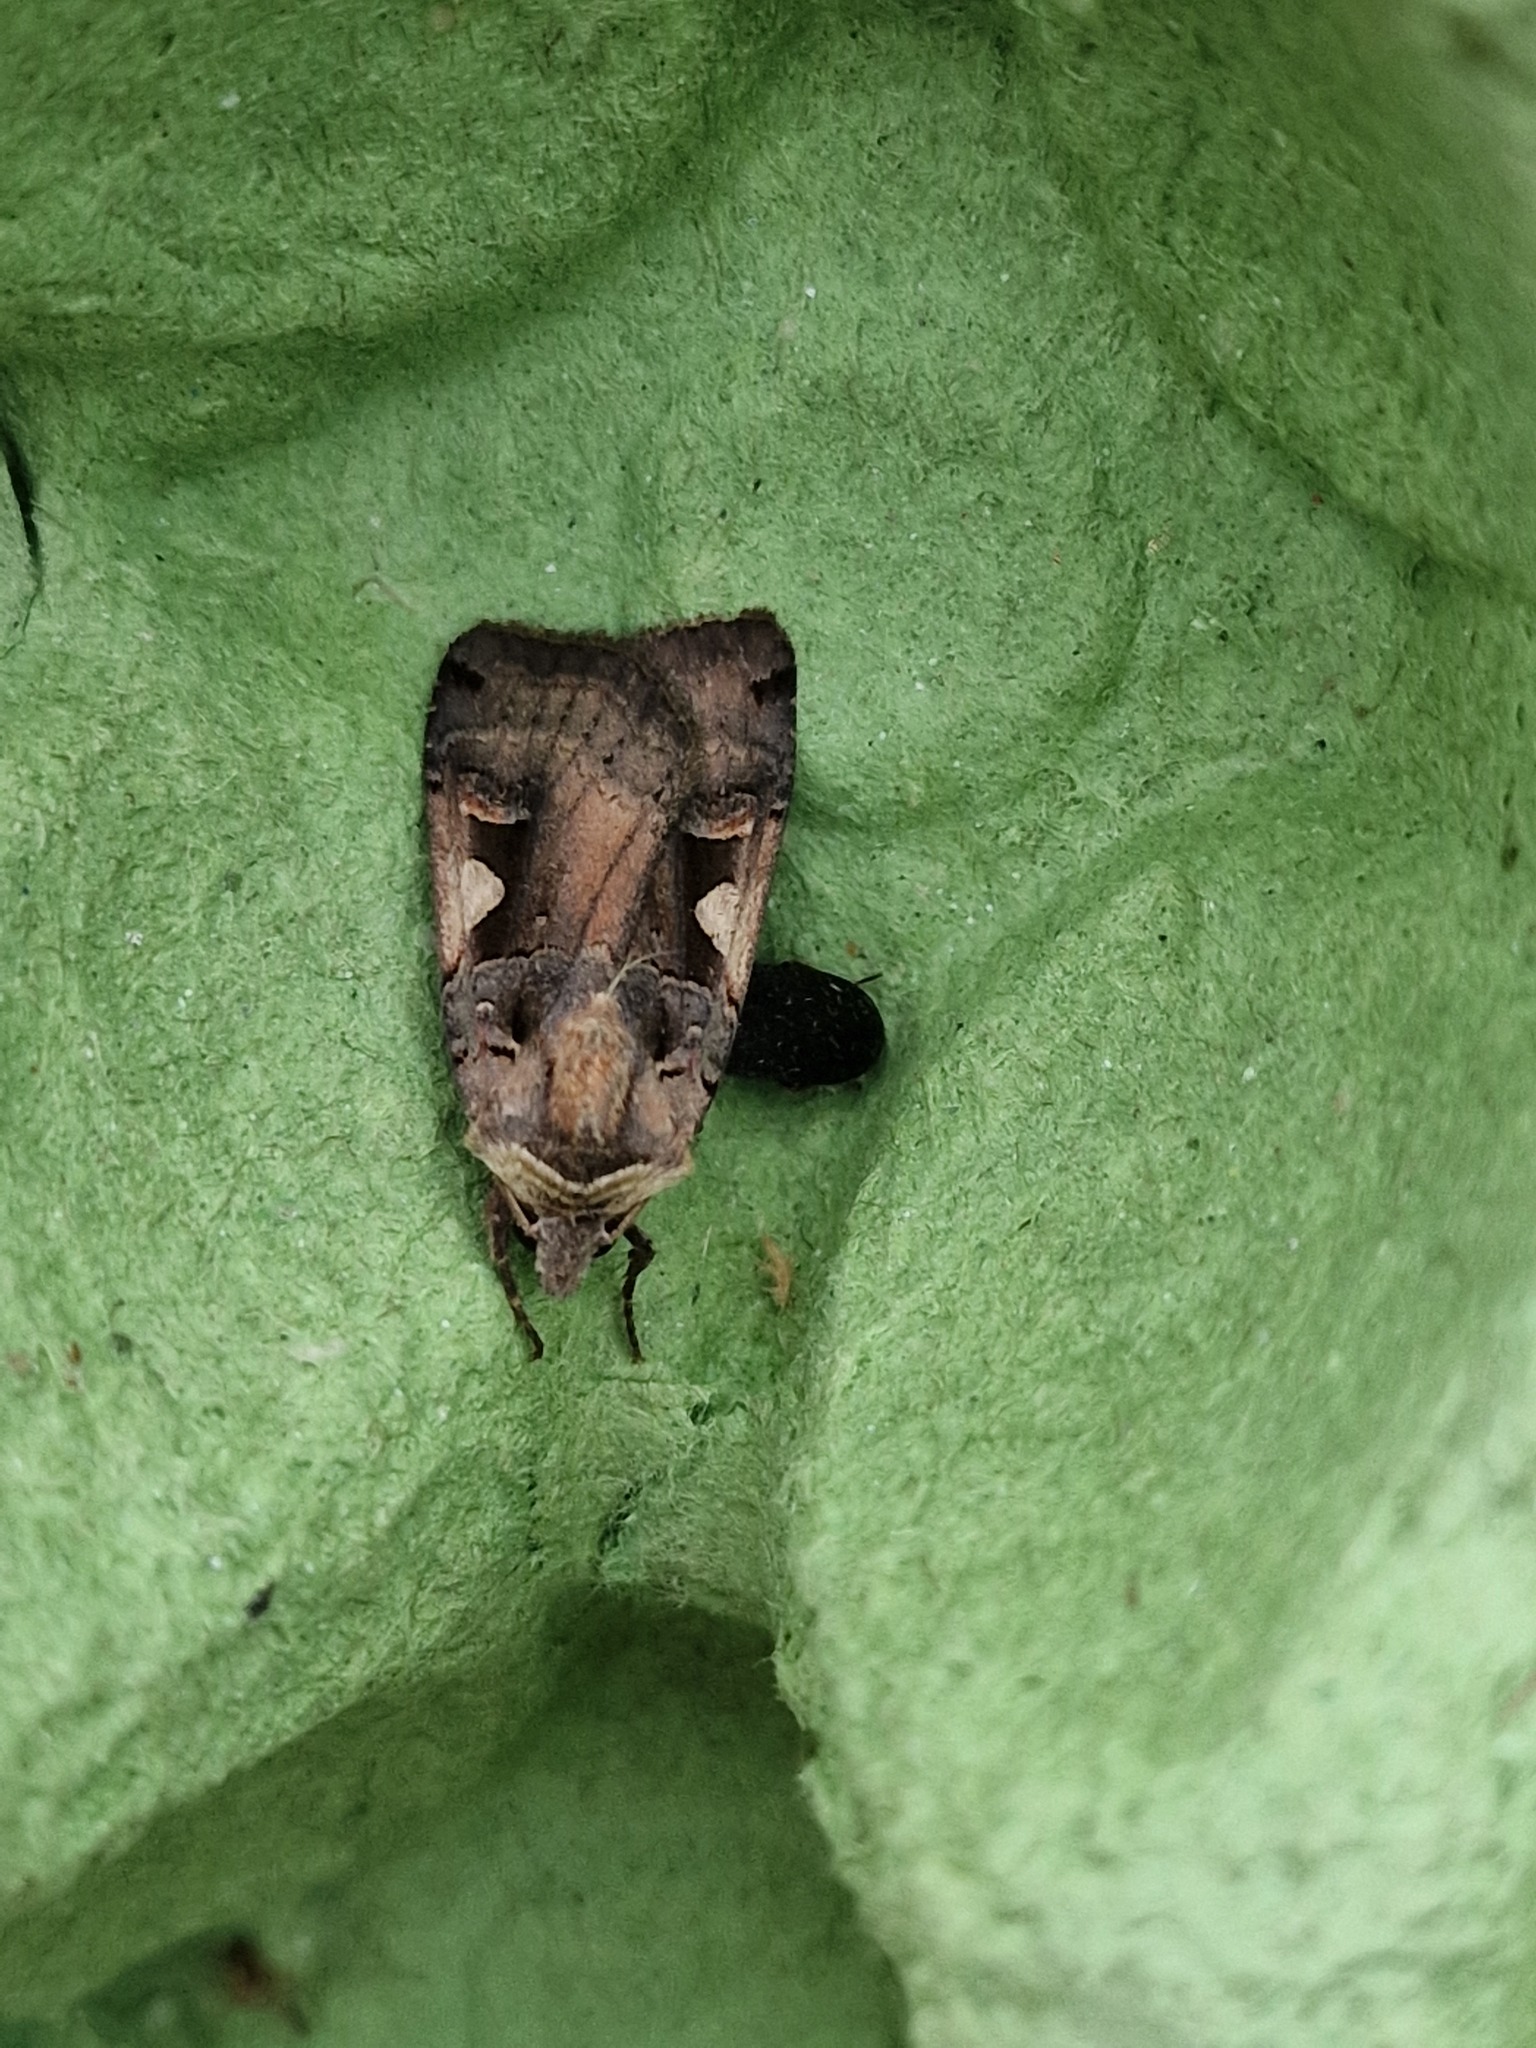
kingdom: Animalia
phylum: Arthropoda
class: Insecta
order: Lepidoptera
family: Noctuidae
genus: Xestia
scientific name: Xestia c-nigrum
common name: Setaceous hebrew character
